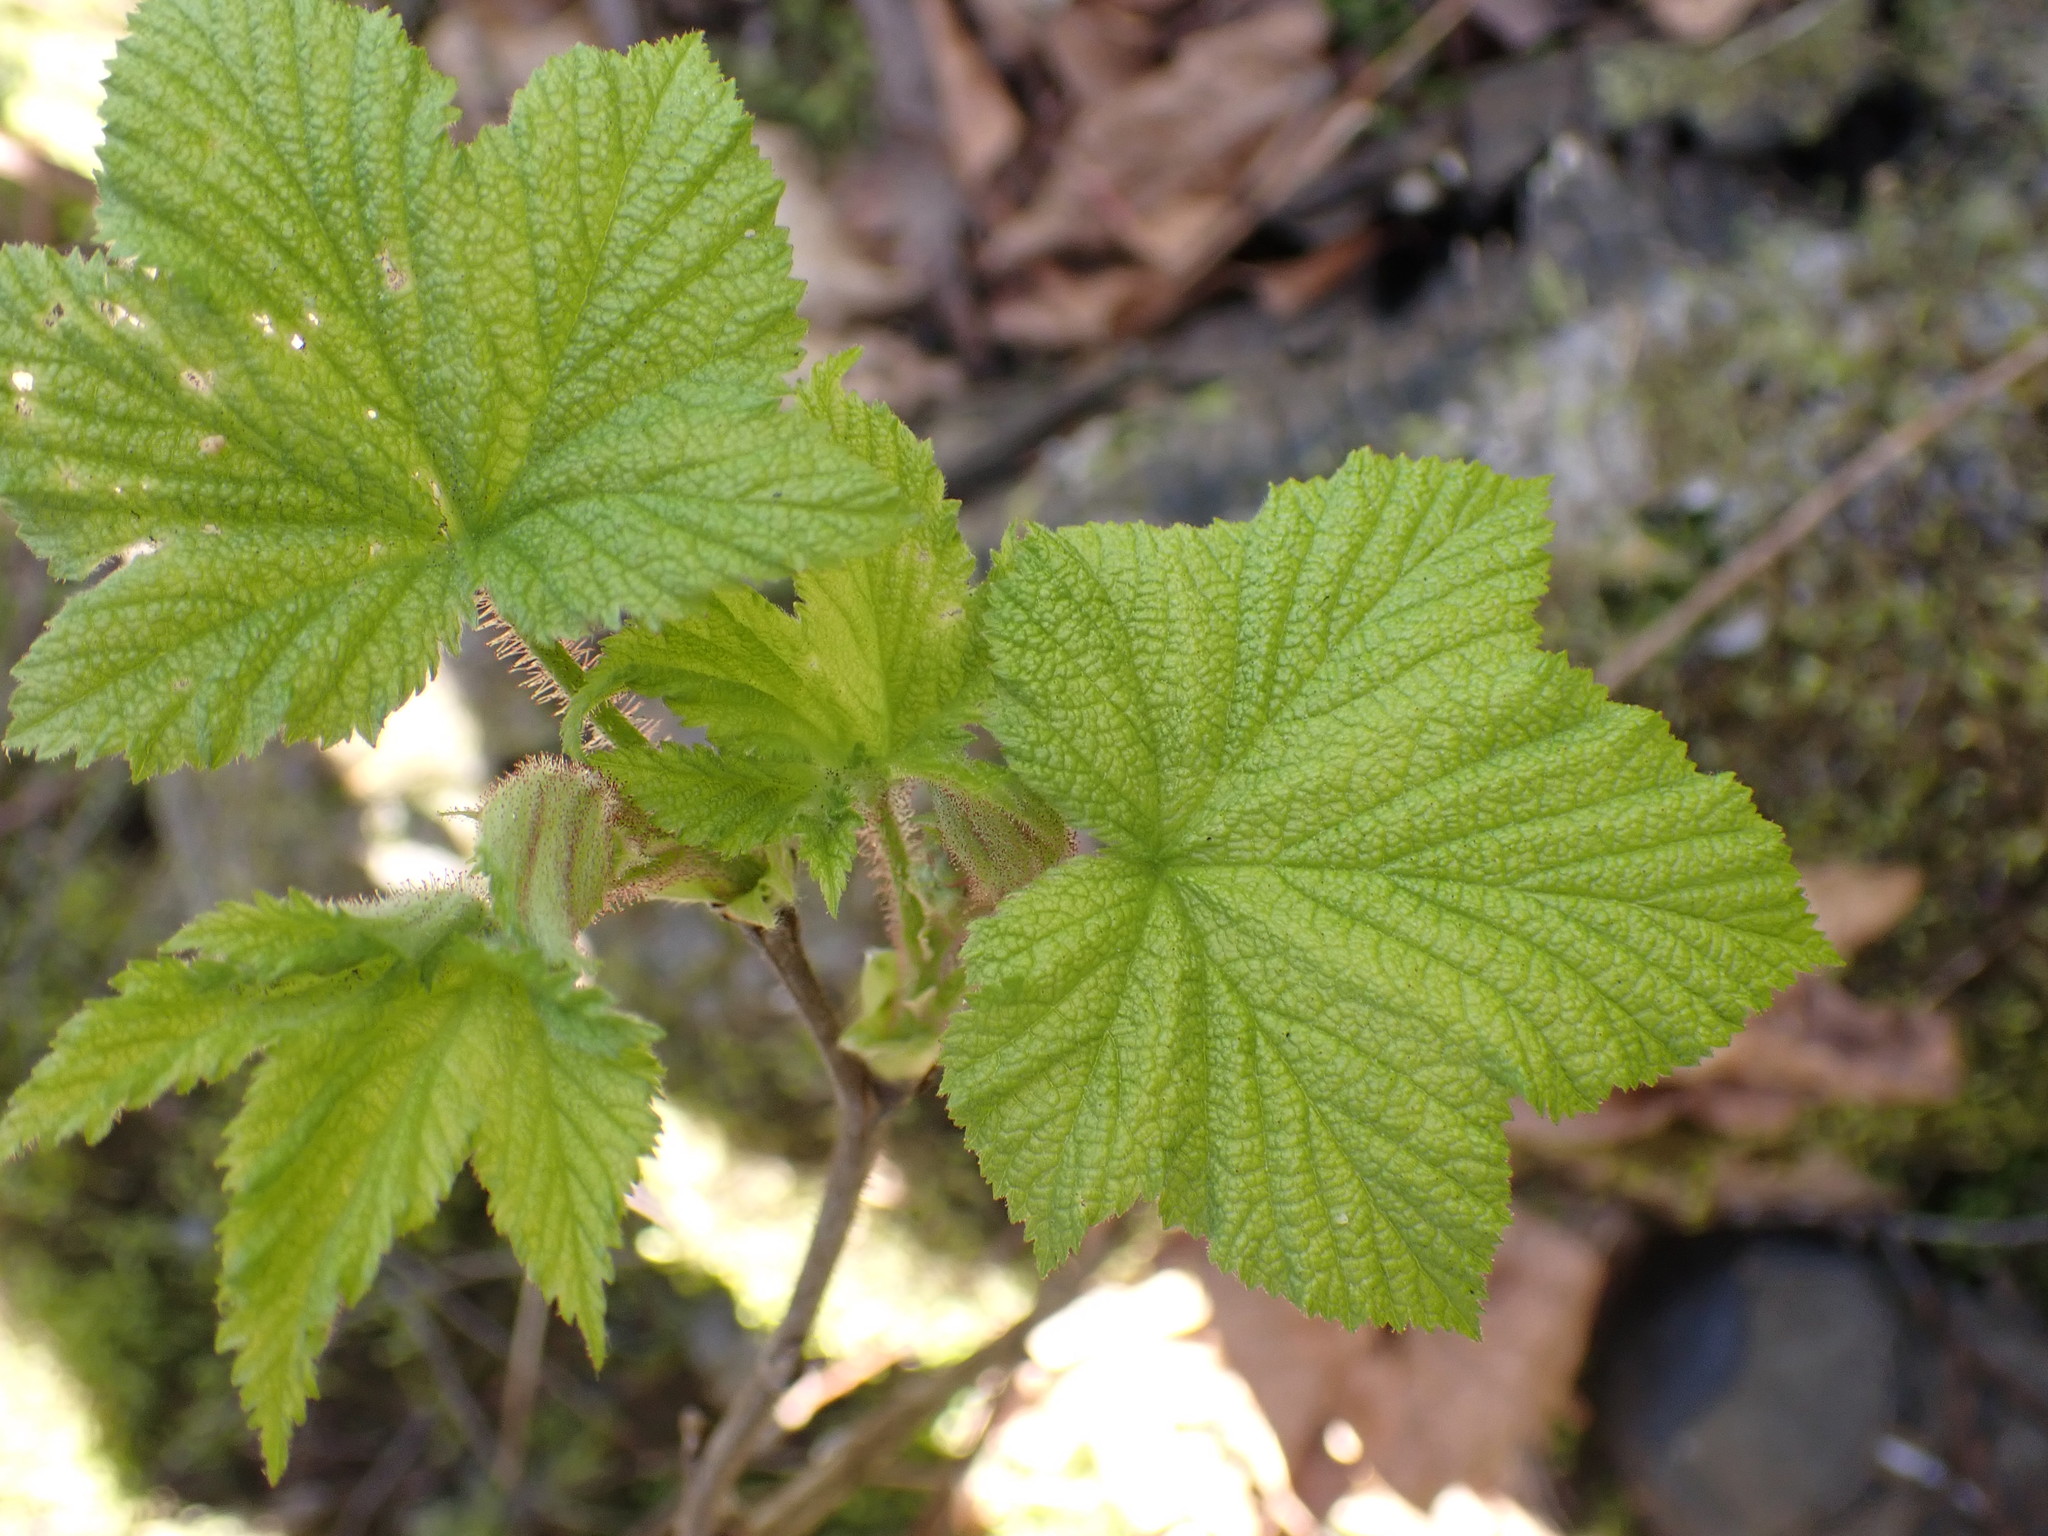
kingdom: Plantae
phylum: Tracheophyta
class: Magnoliopsida
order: Rosales
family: Rosaceae
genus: Rubus
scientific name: Rubus parviflorus
